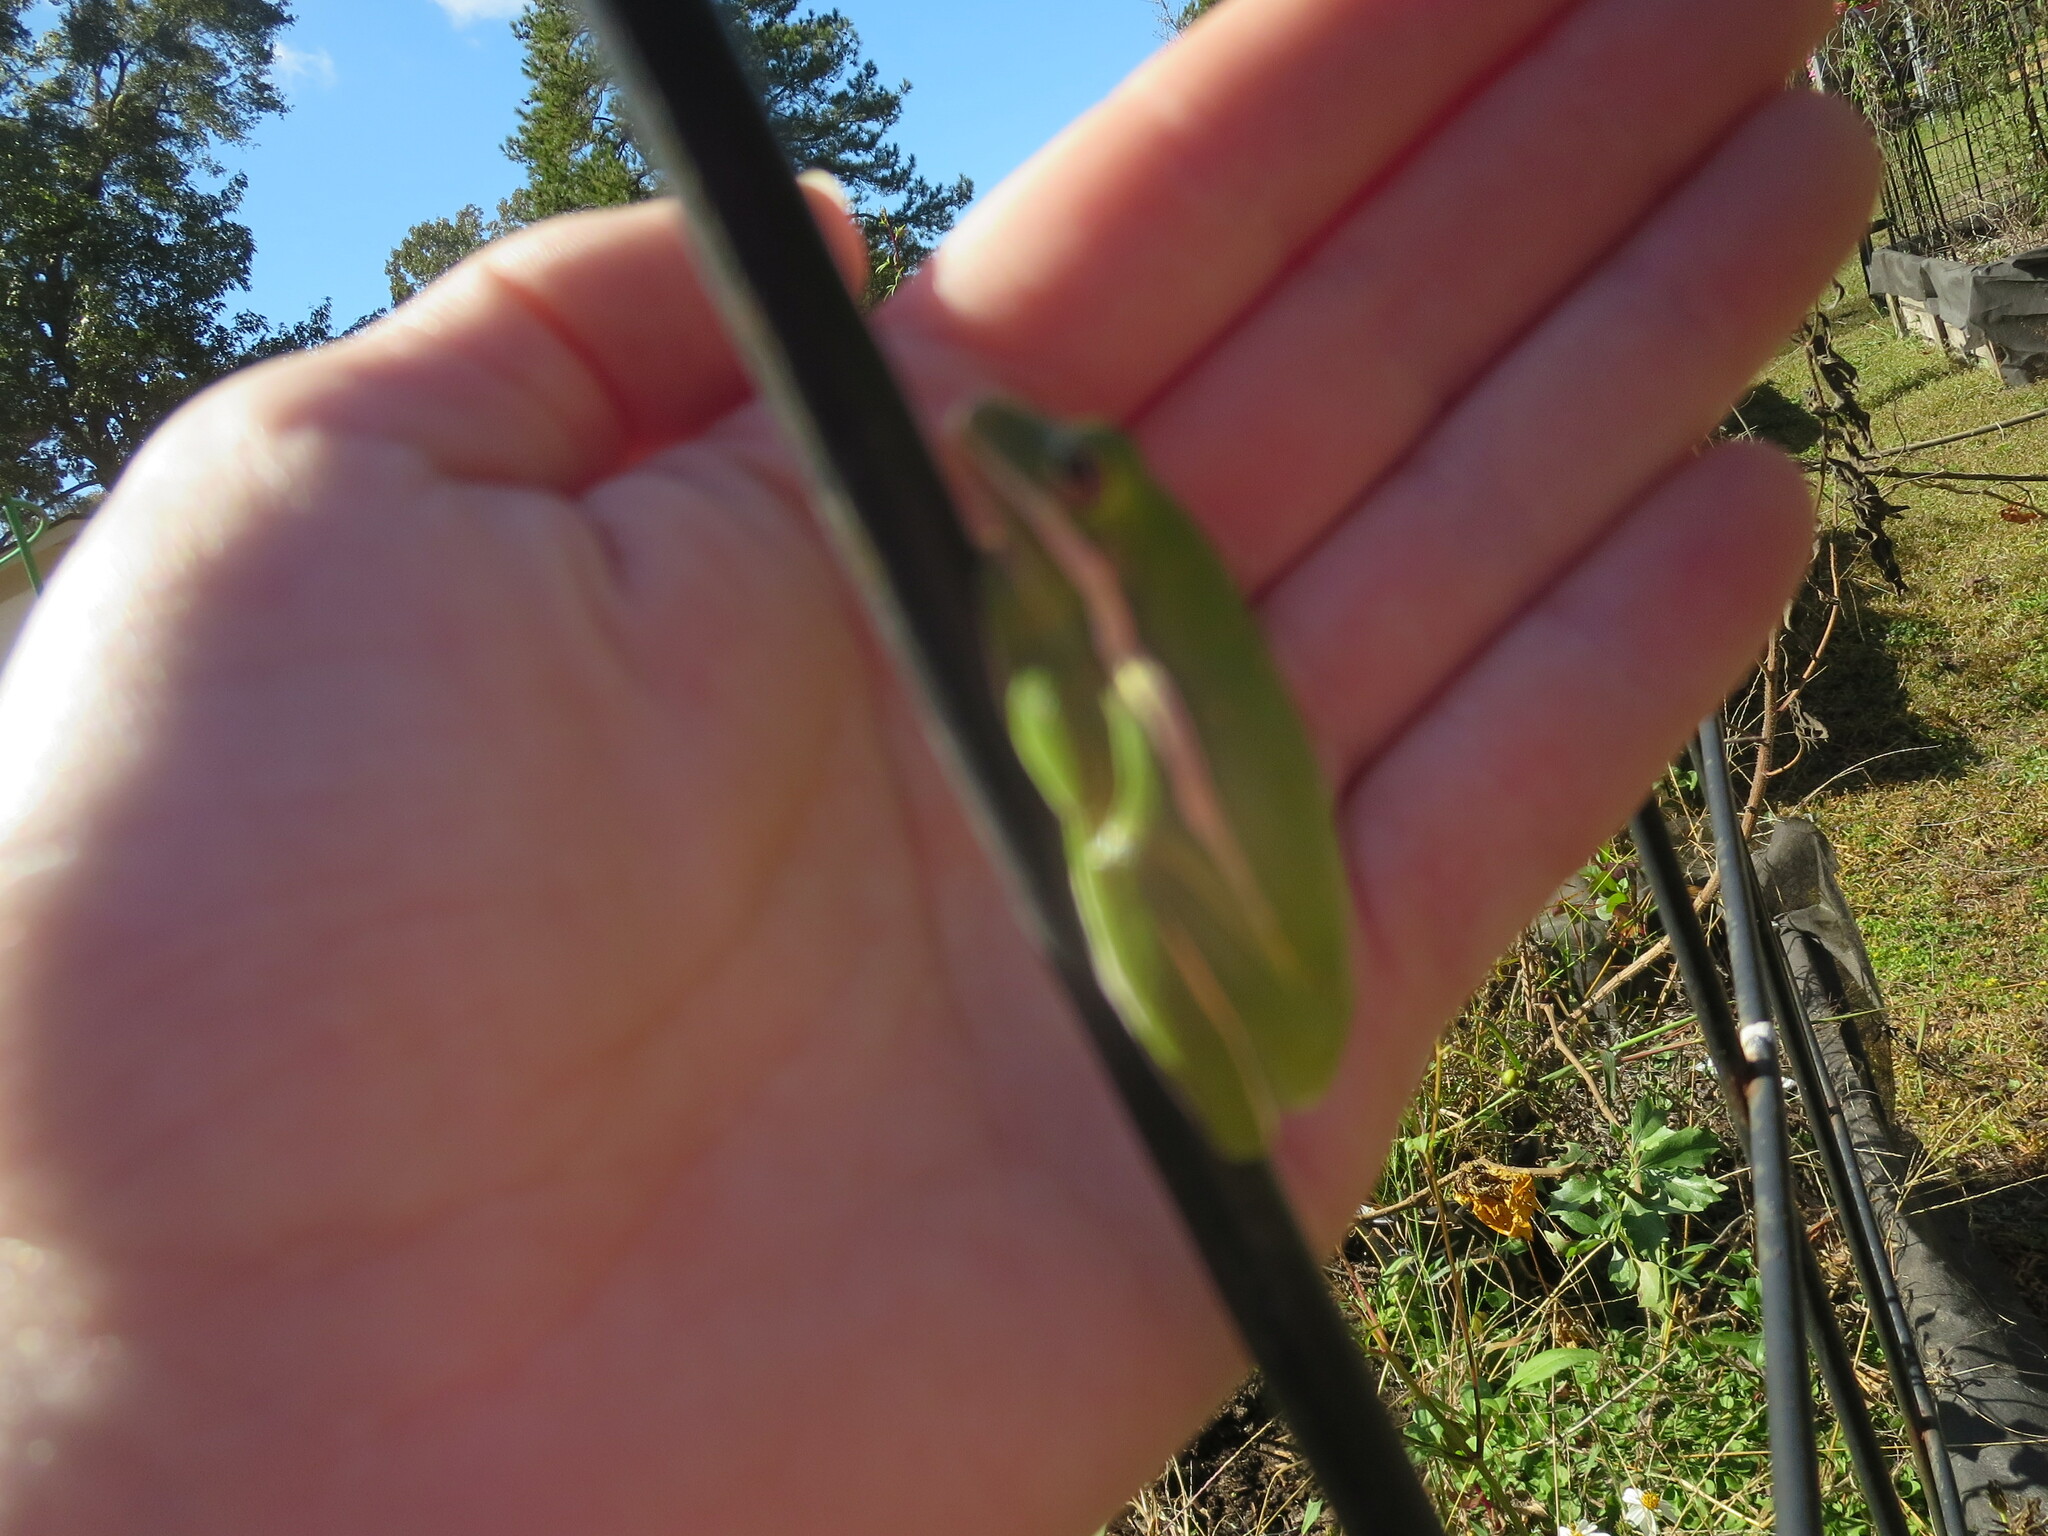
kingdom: Animalia
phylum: Chordata
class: Amphibia
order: Anura
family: Hylidae
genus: Dryophytes
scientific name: Dryophytes cinereus
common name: Green treefrog
